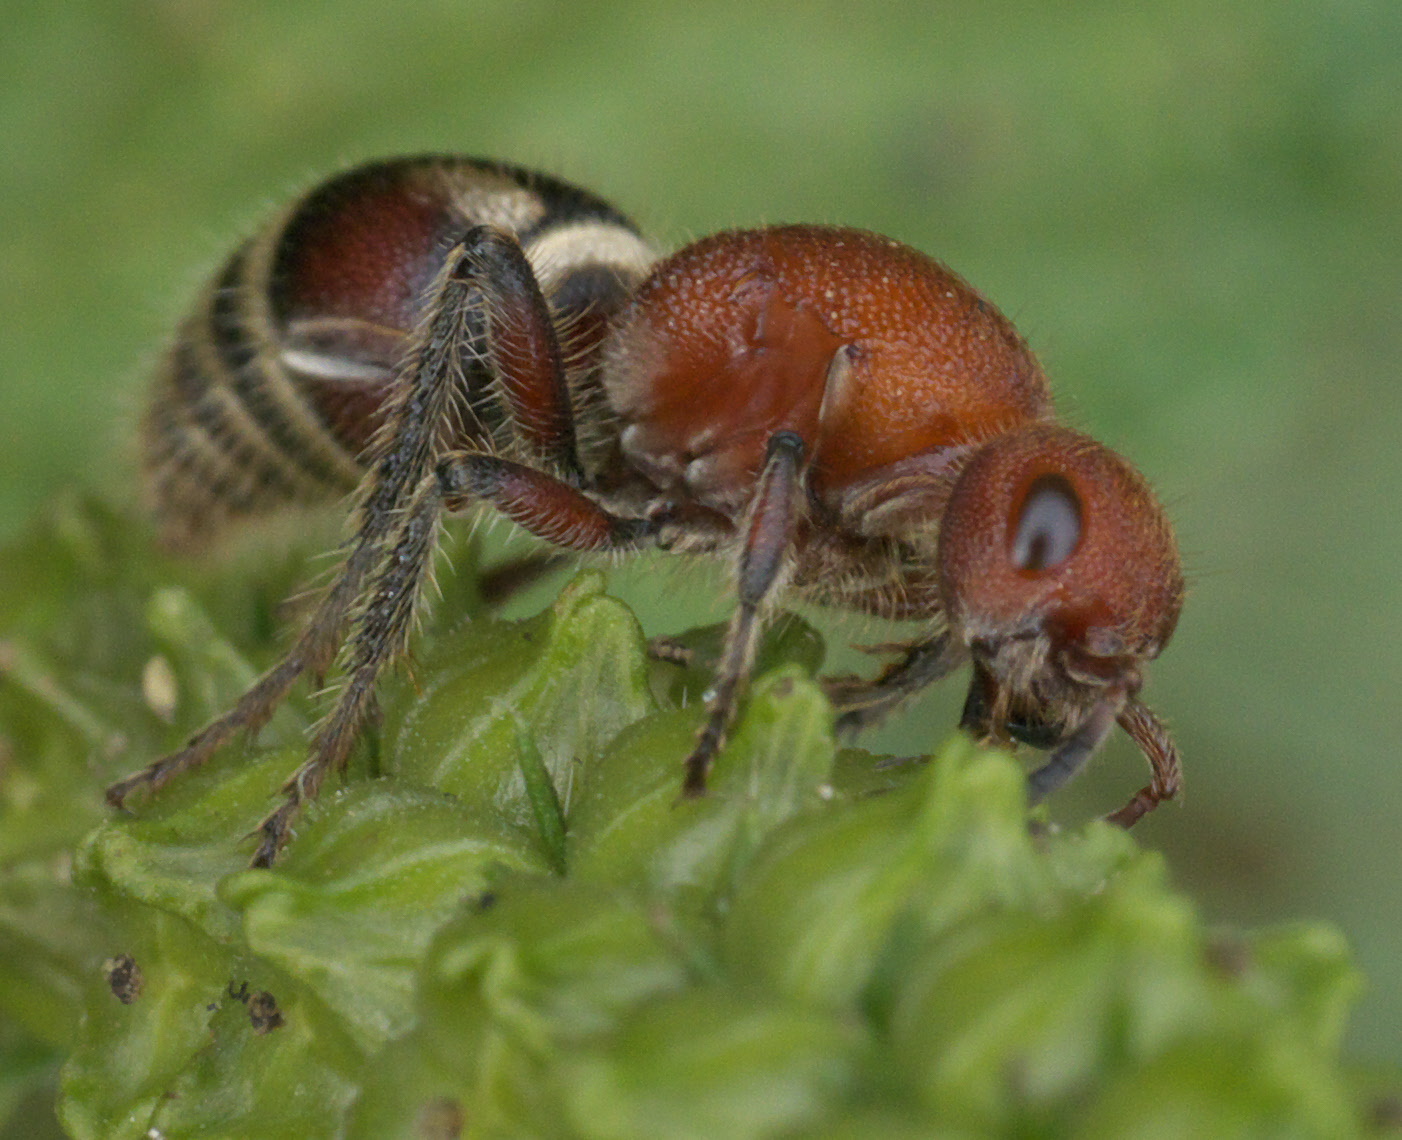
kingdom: Animalia
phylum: Arthropoda
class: Insecta
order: Hymenoptera
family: Mutillidae
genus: Timulla
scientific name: Timulla
